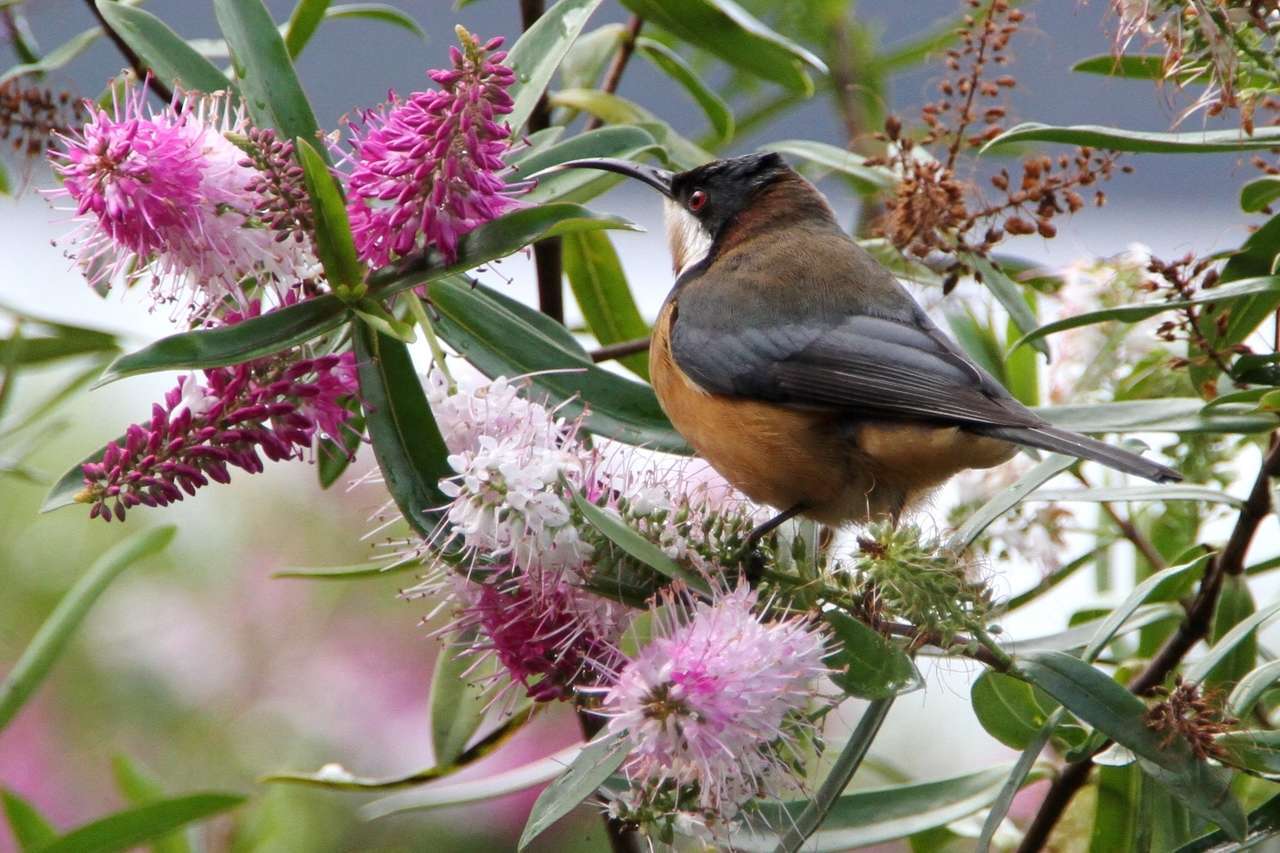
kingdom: Animalia
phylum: Chordata
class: Aves
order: Passeriformes
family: Meliphagidae
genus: Acanthorhynchus
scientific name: Acanthorhynchus tenuirostris
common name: Eastern spinebill
